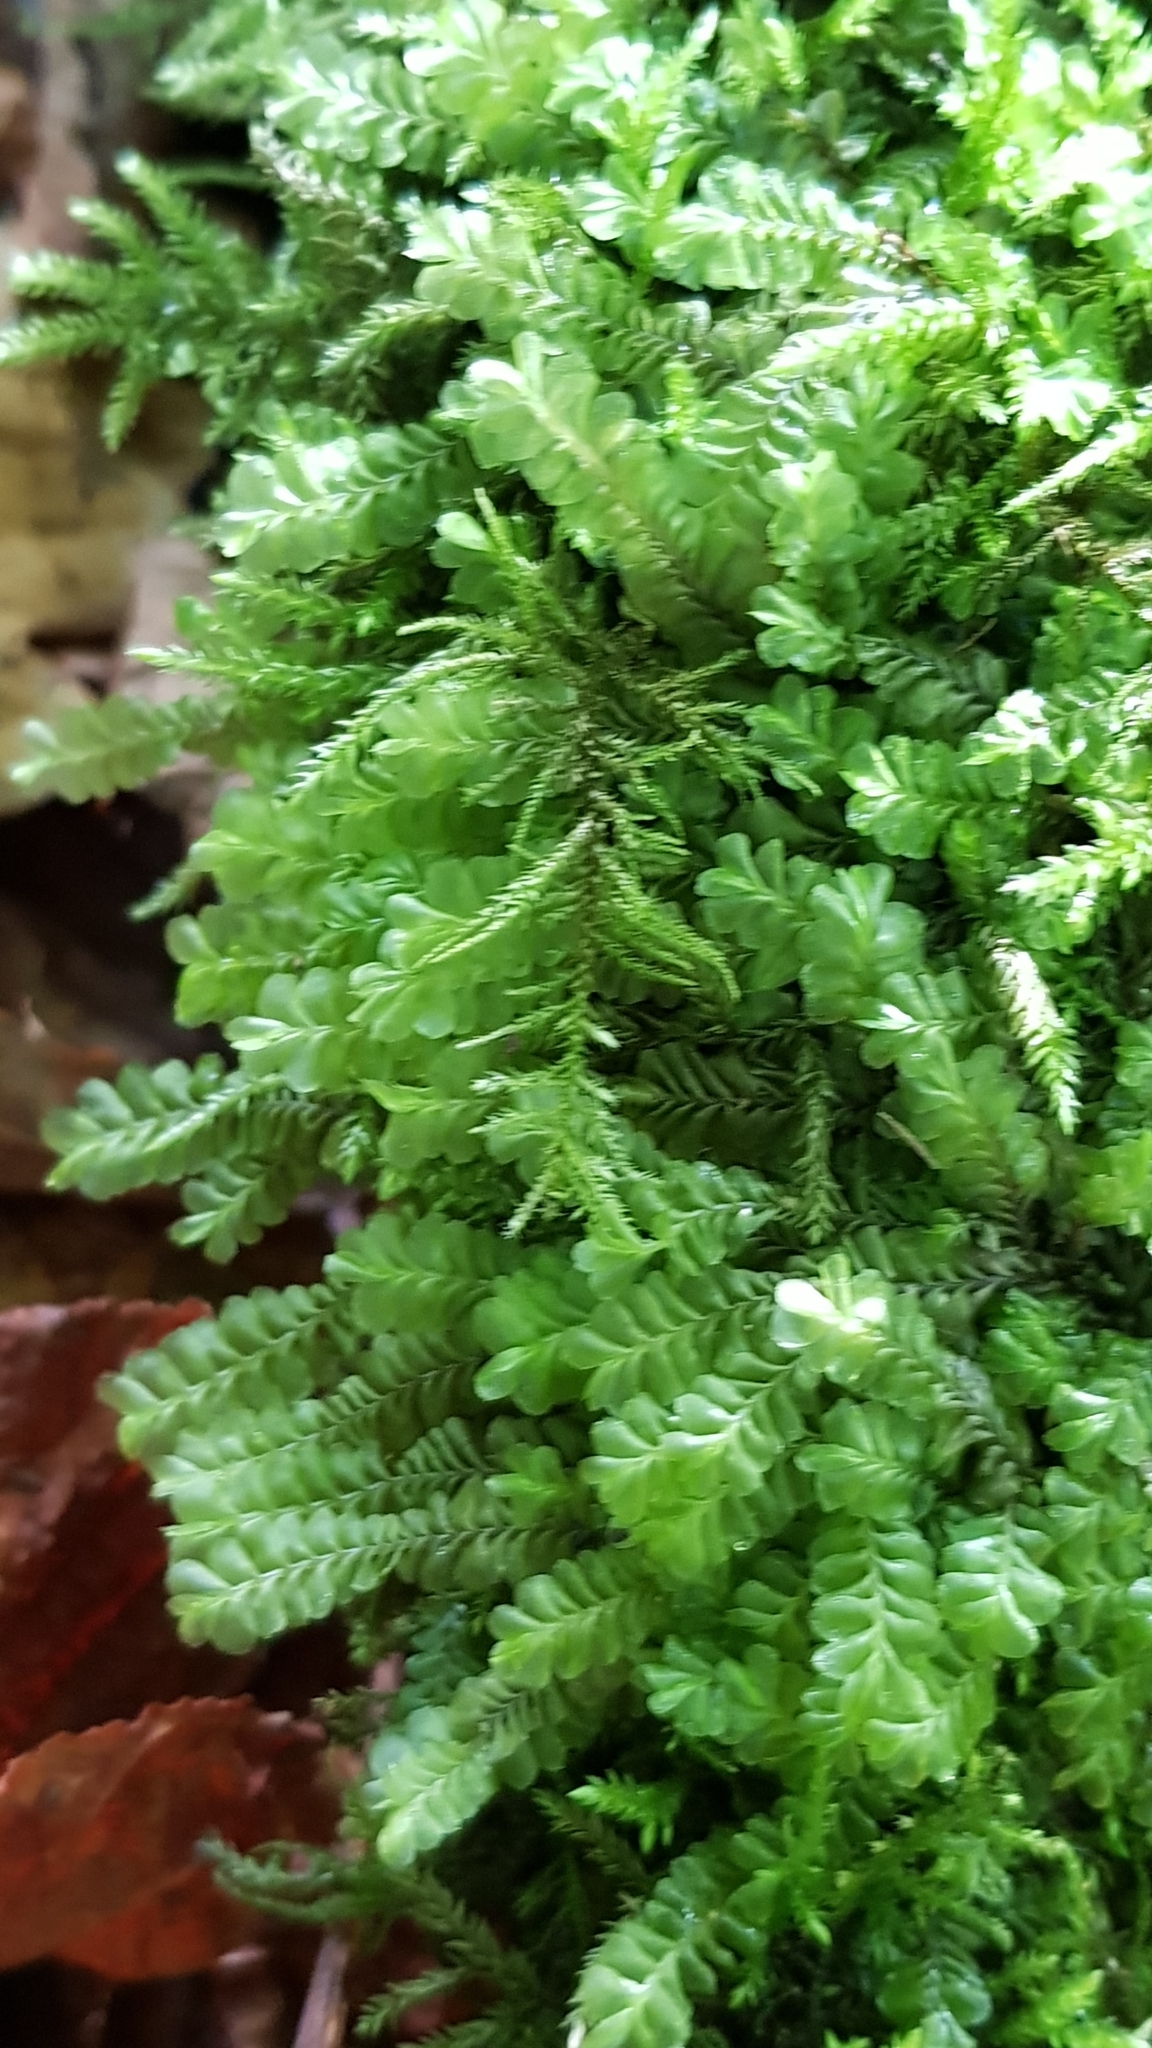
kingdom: Plantae
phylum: Marchantiophyta
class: Jungermanniopsida
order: Jungermanniales
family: Plagiochilaceae
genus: Plagiochila
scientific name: Plagiochila asplenioides
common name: Greater featherwort
